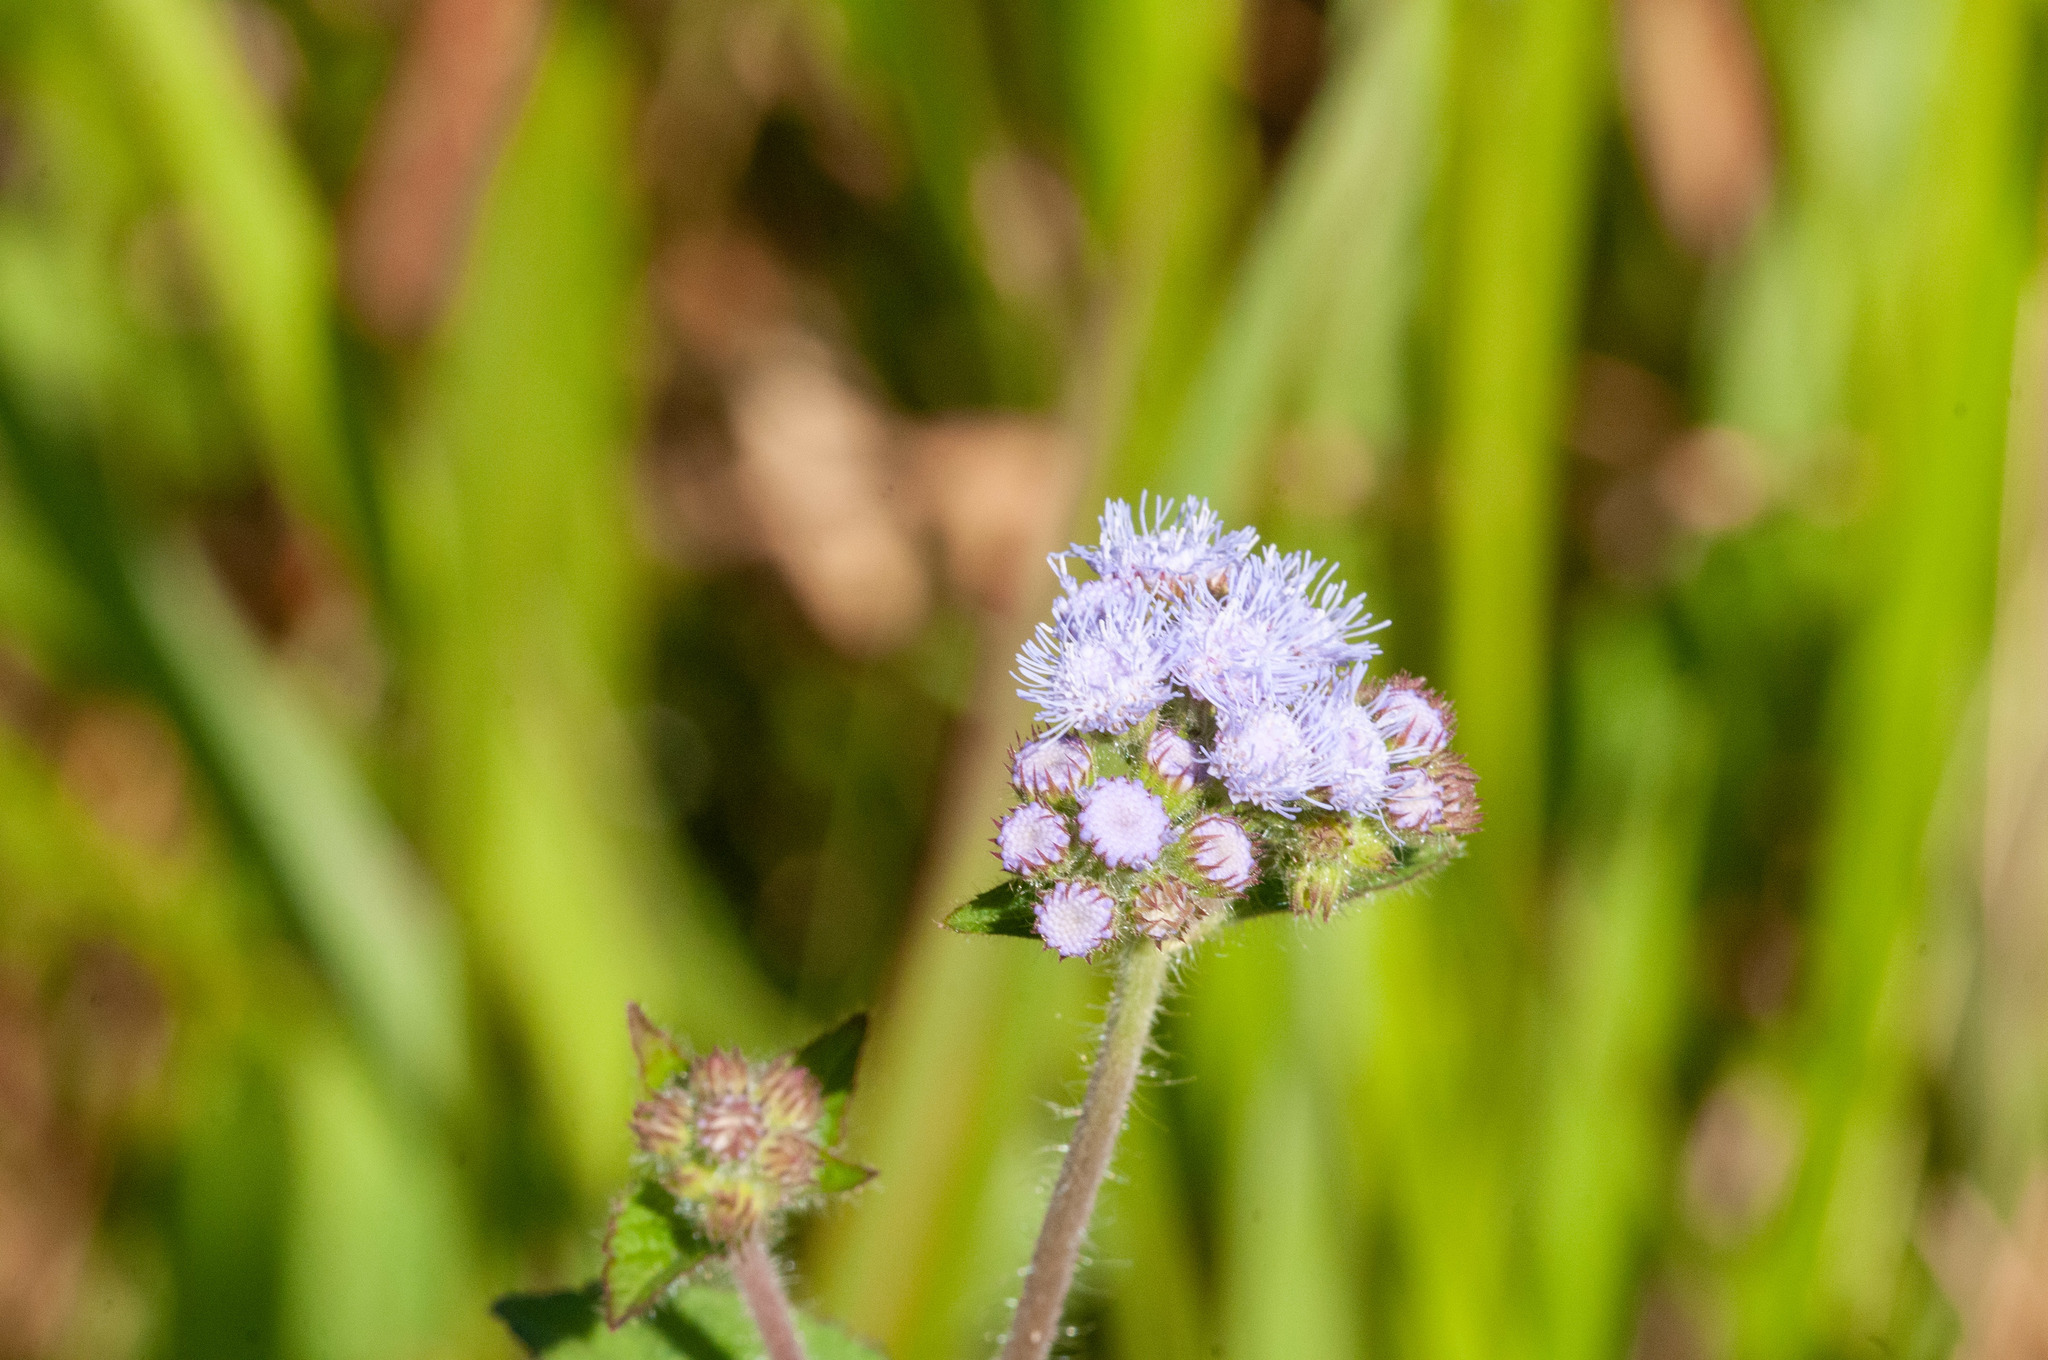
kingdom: Plantae
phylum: Tracheophyta
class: Magnoliopsida
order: Asterales
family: Asteraceae
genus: Ageratum
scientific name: Ageratum houstonianum
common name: Bluemink
